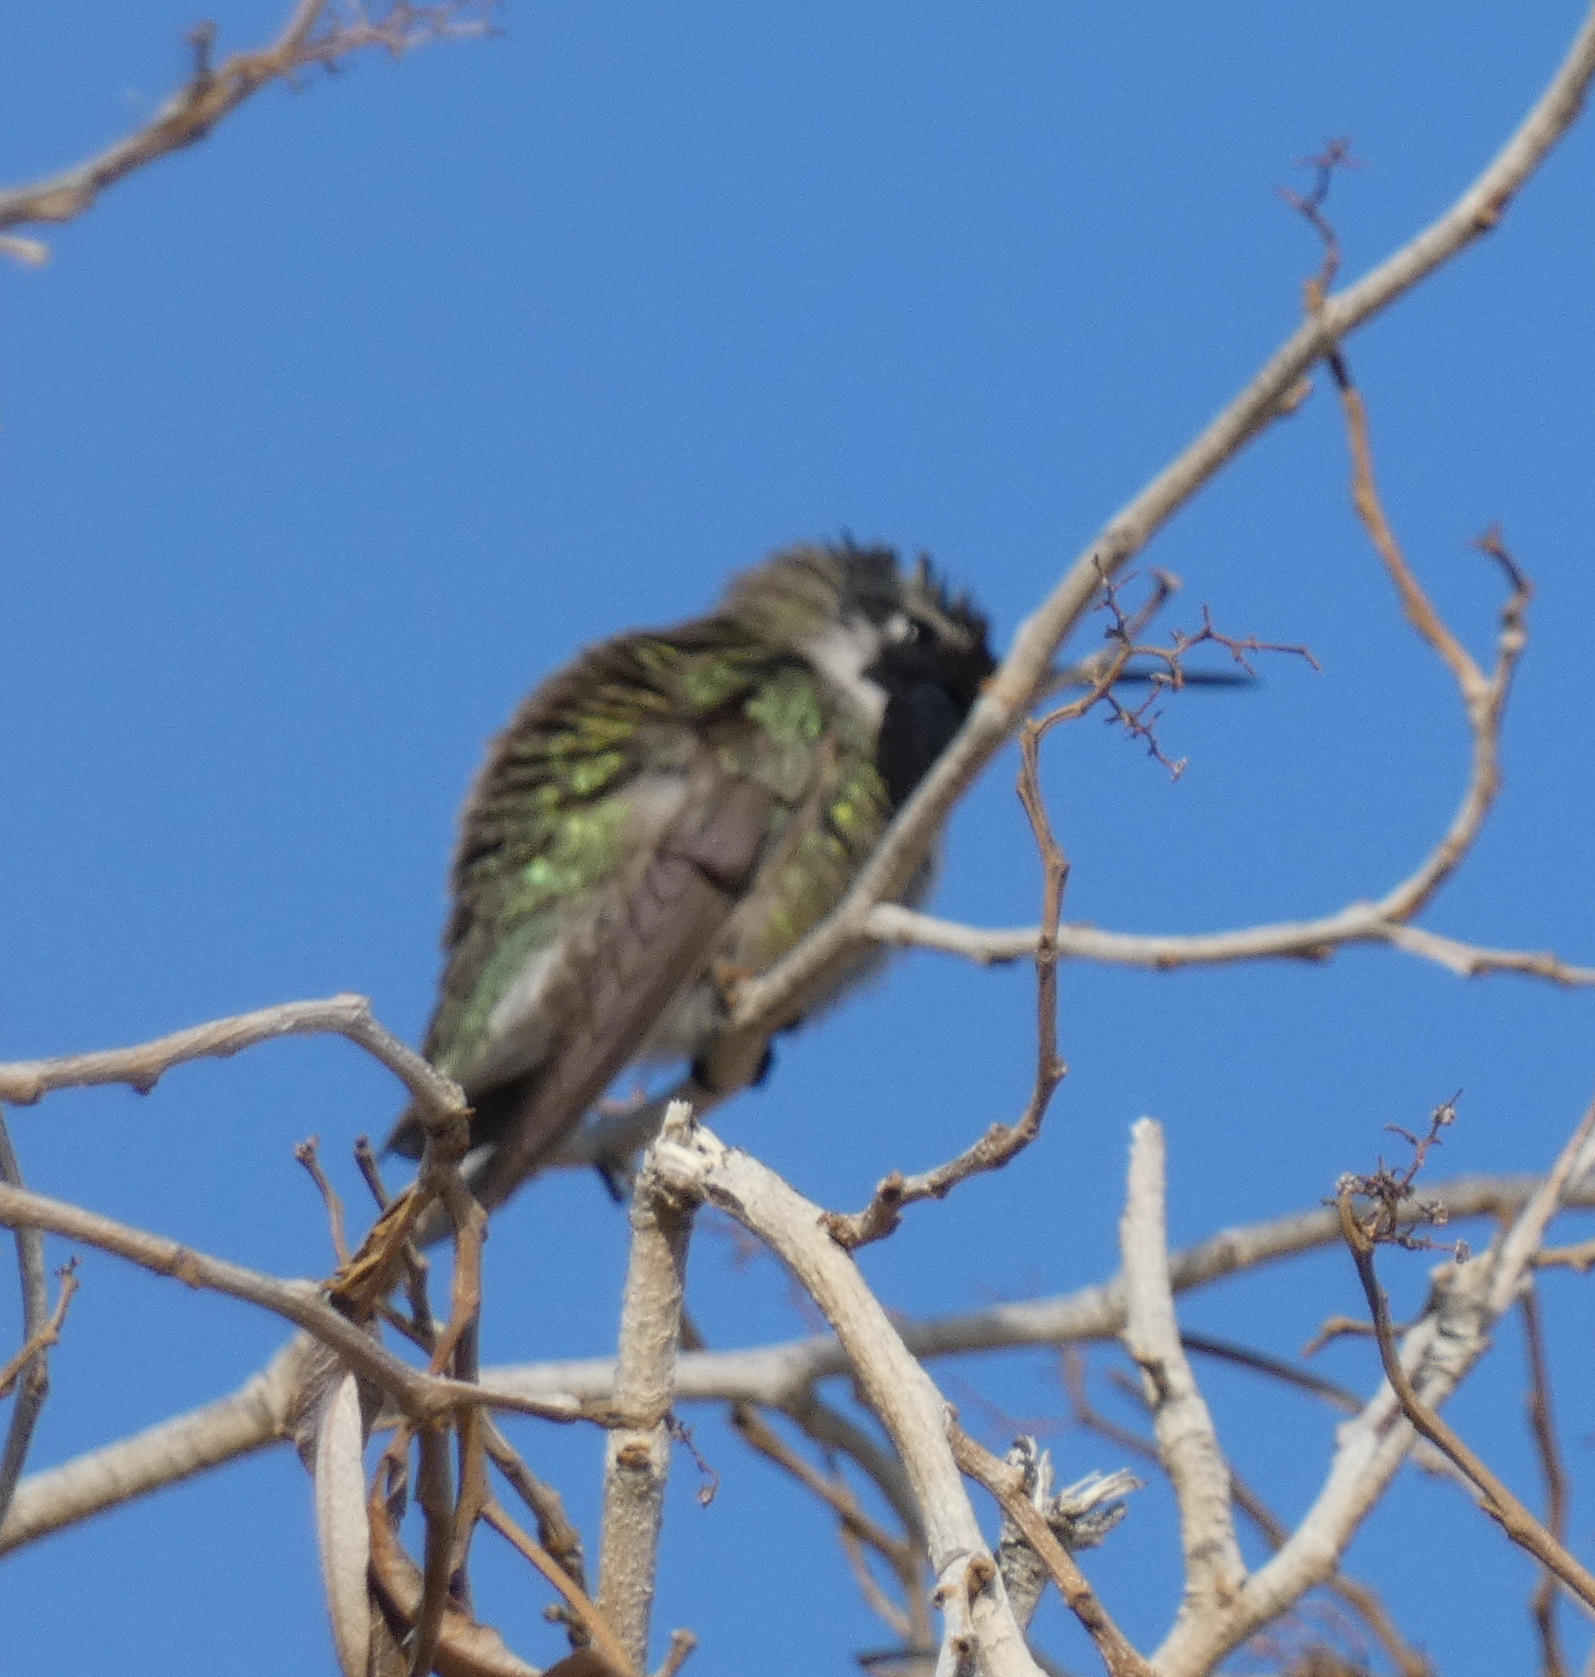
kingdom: Animalia
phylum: Chordata
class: Aves
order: Apodiformes
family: Trochilidae
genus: Calypte
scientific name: Calypte costae
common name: Costa's hummingbird
